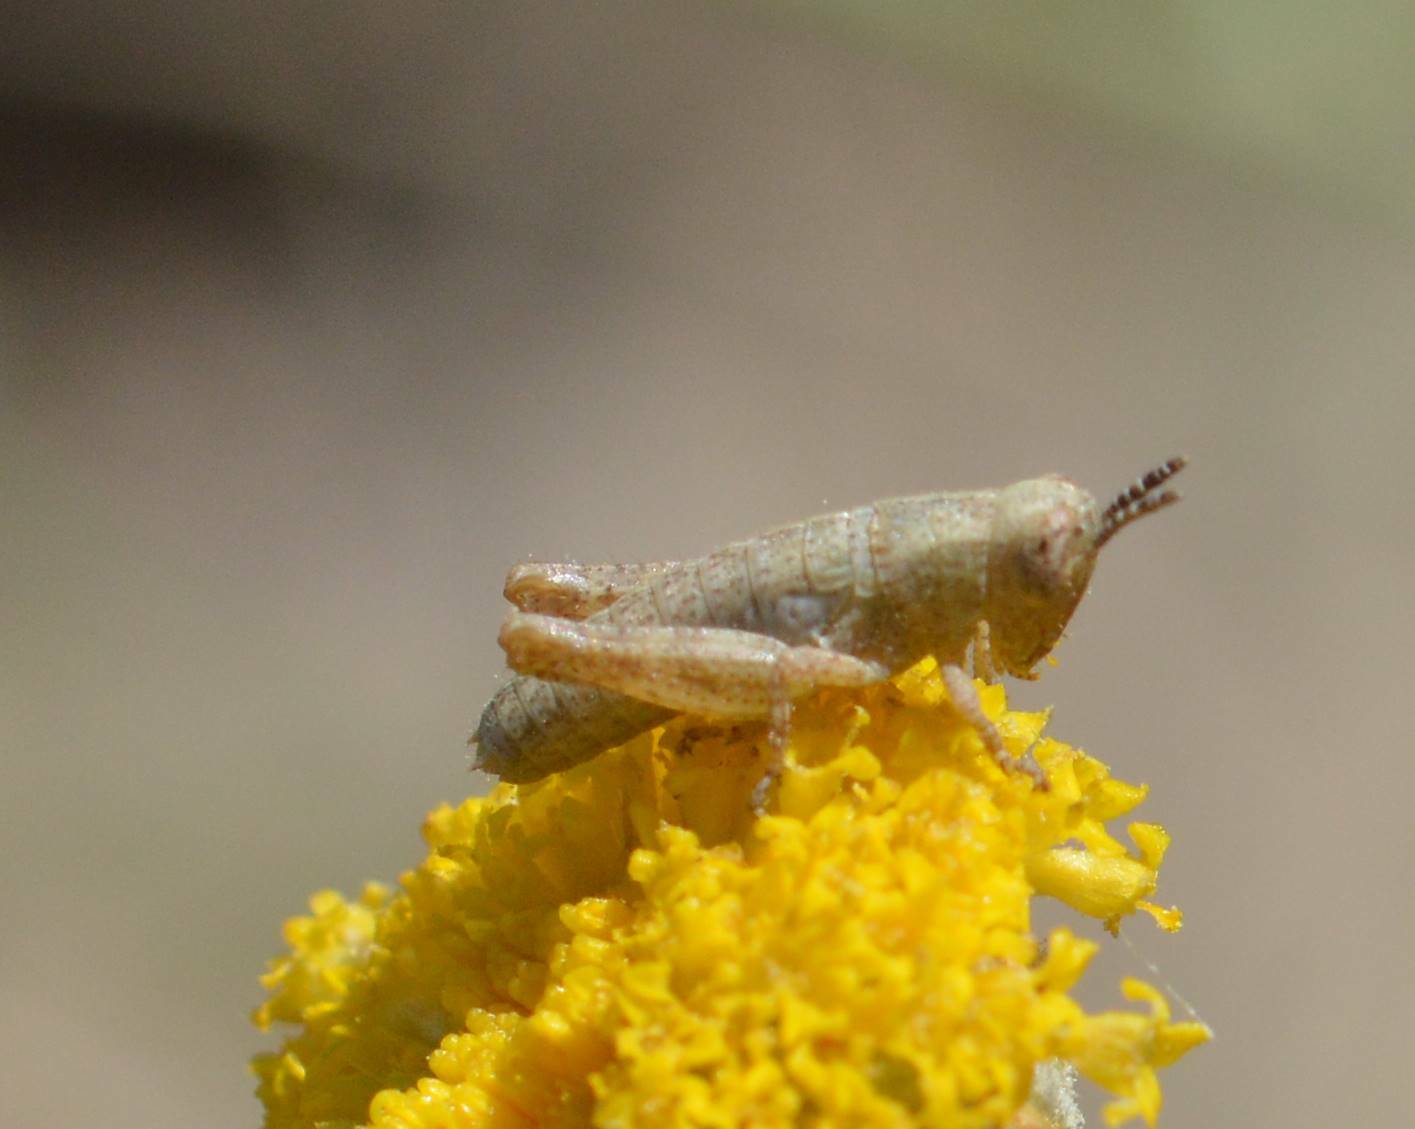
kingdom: Animalia
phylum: Arthropoda
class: Insecta
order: Orthoptera
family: Acrididae
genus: Pezotettix
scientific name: Pezotettix giornae
